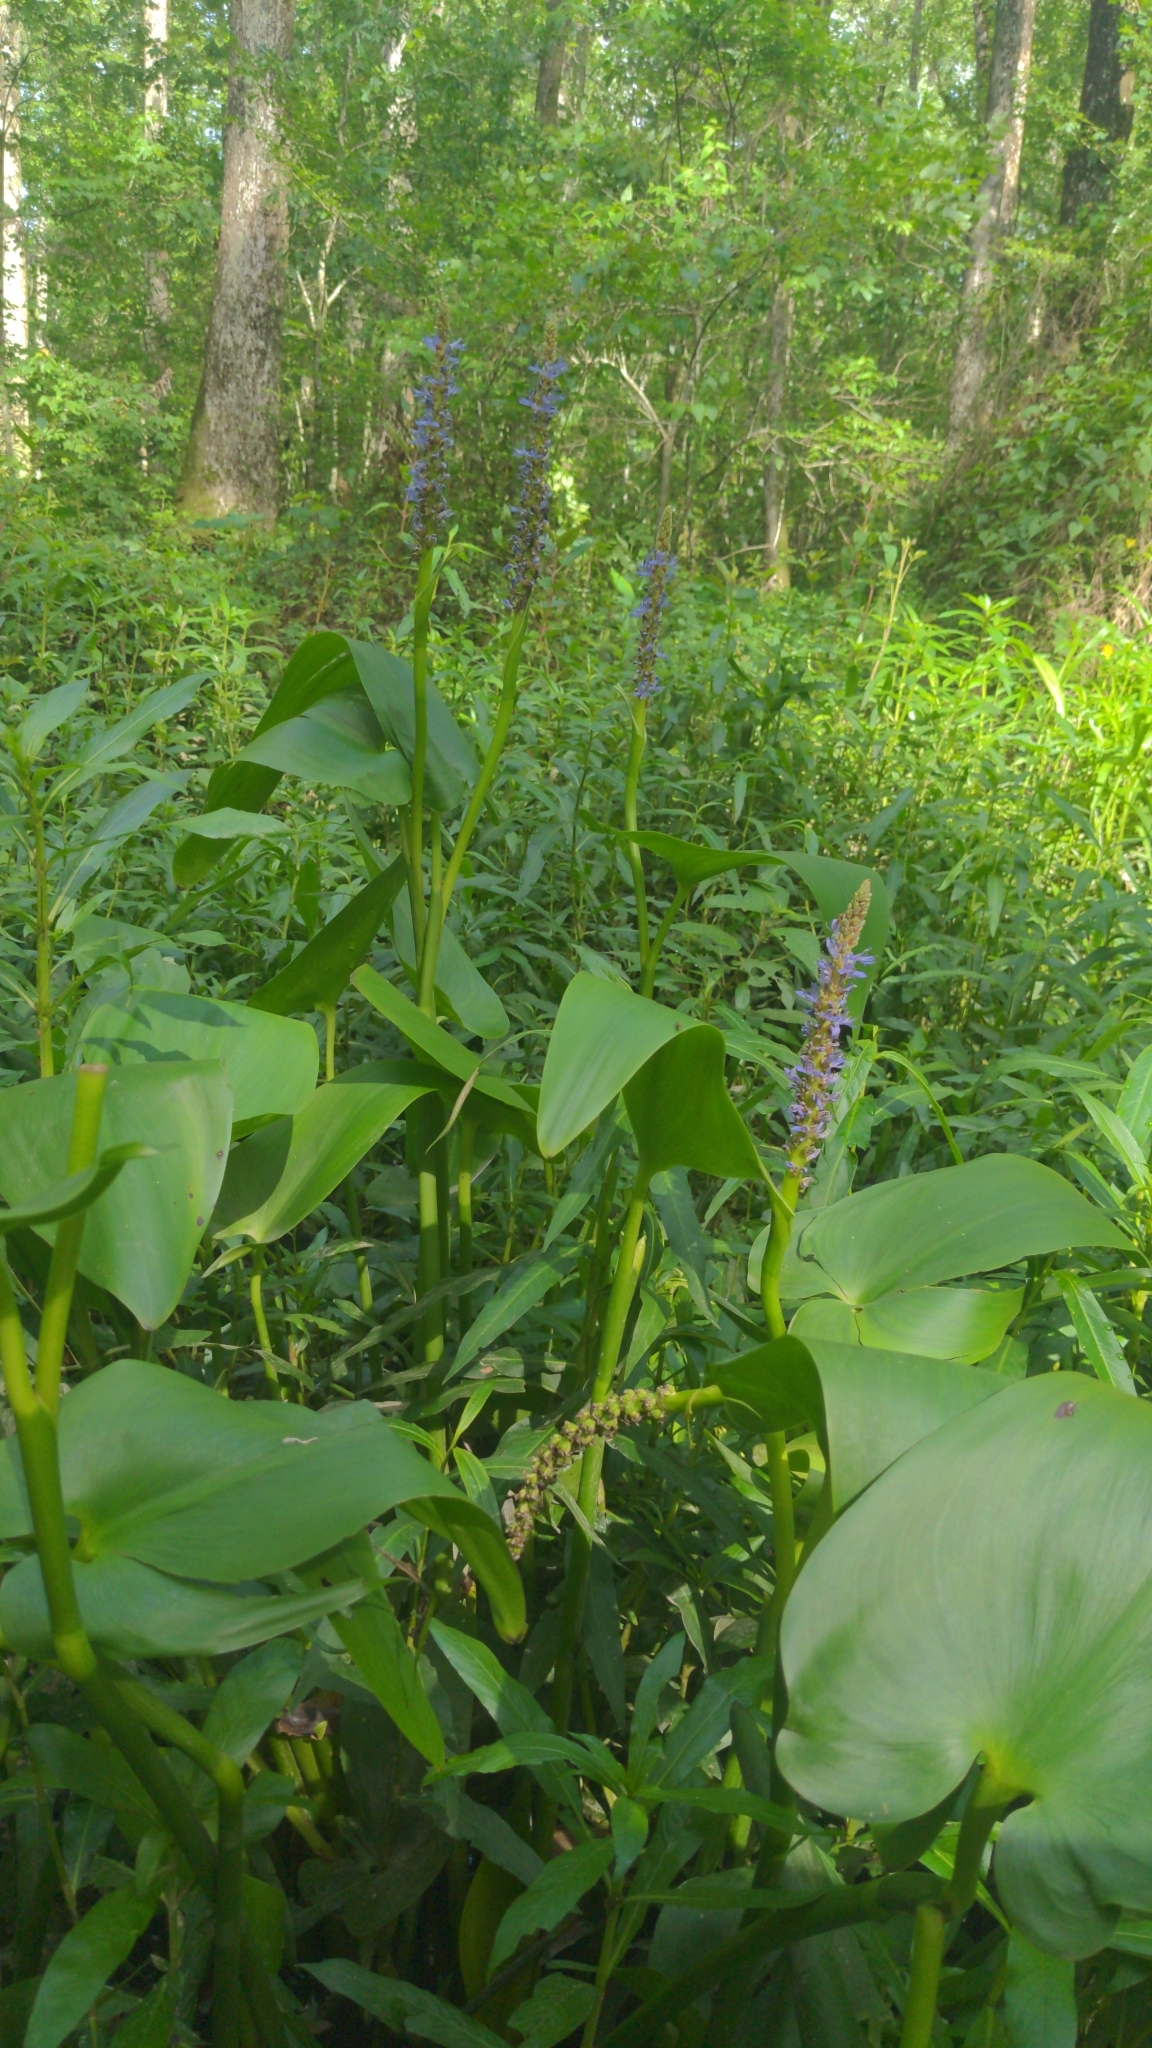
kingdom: Plantae
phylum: Tracheophyta
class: Liliopsida
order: Commelinales
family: Pontederiaceae
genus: Pontederia
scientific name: Pontederia cordata
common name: Pickerelweed
